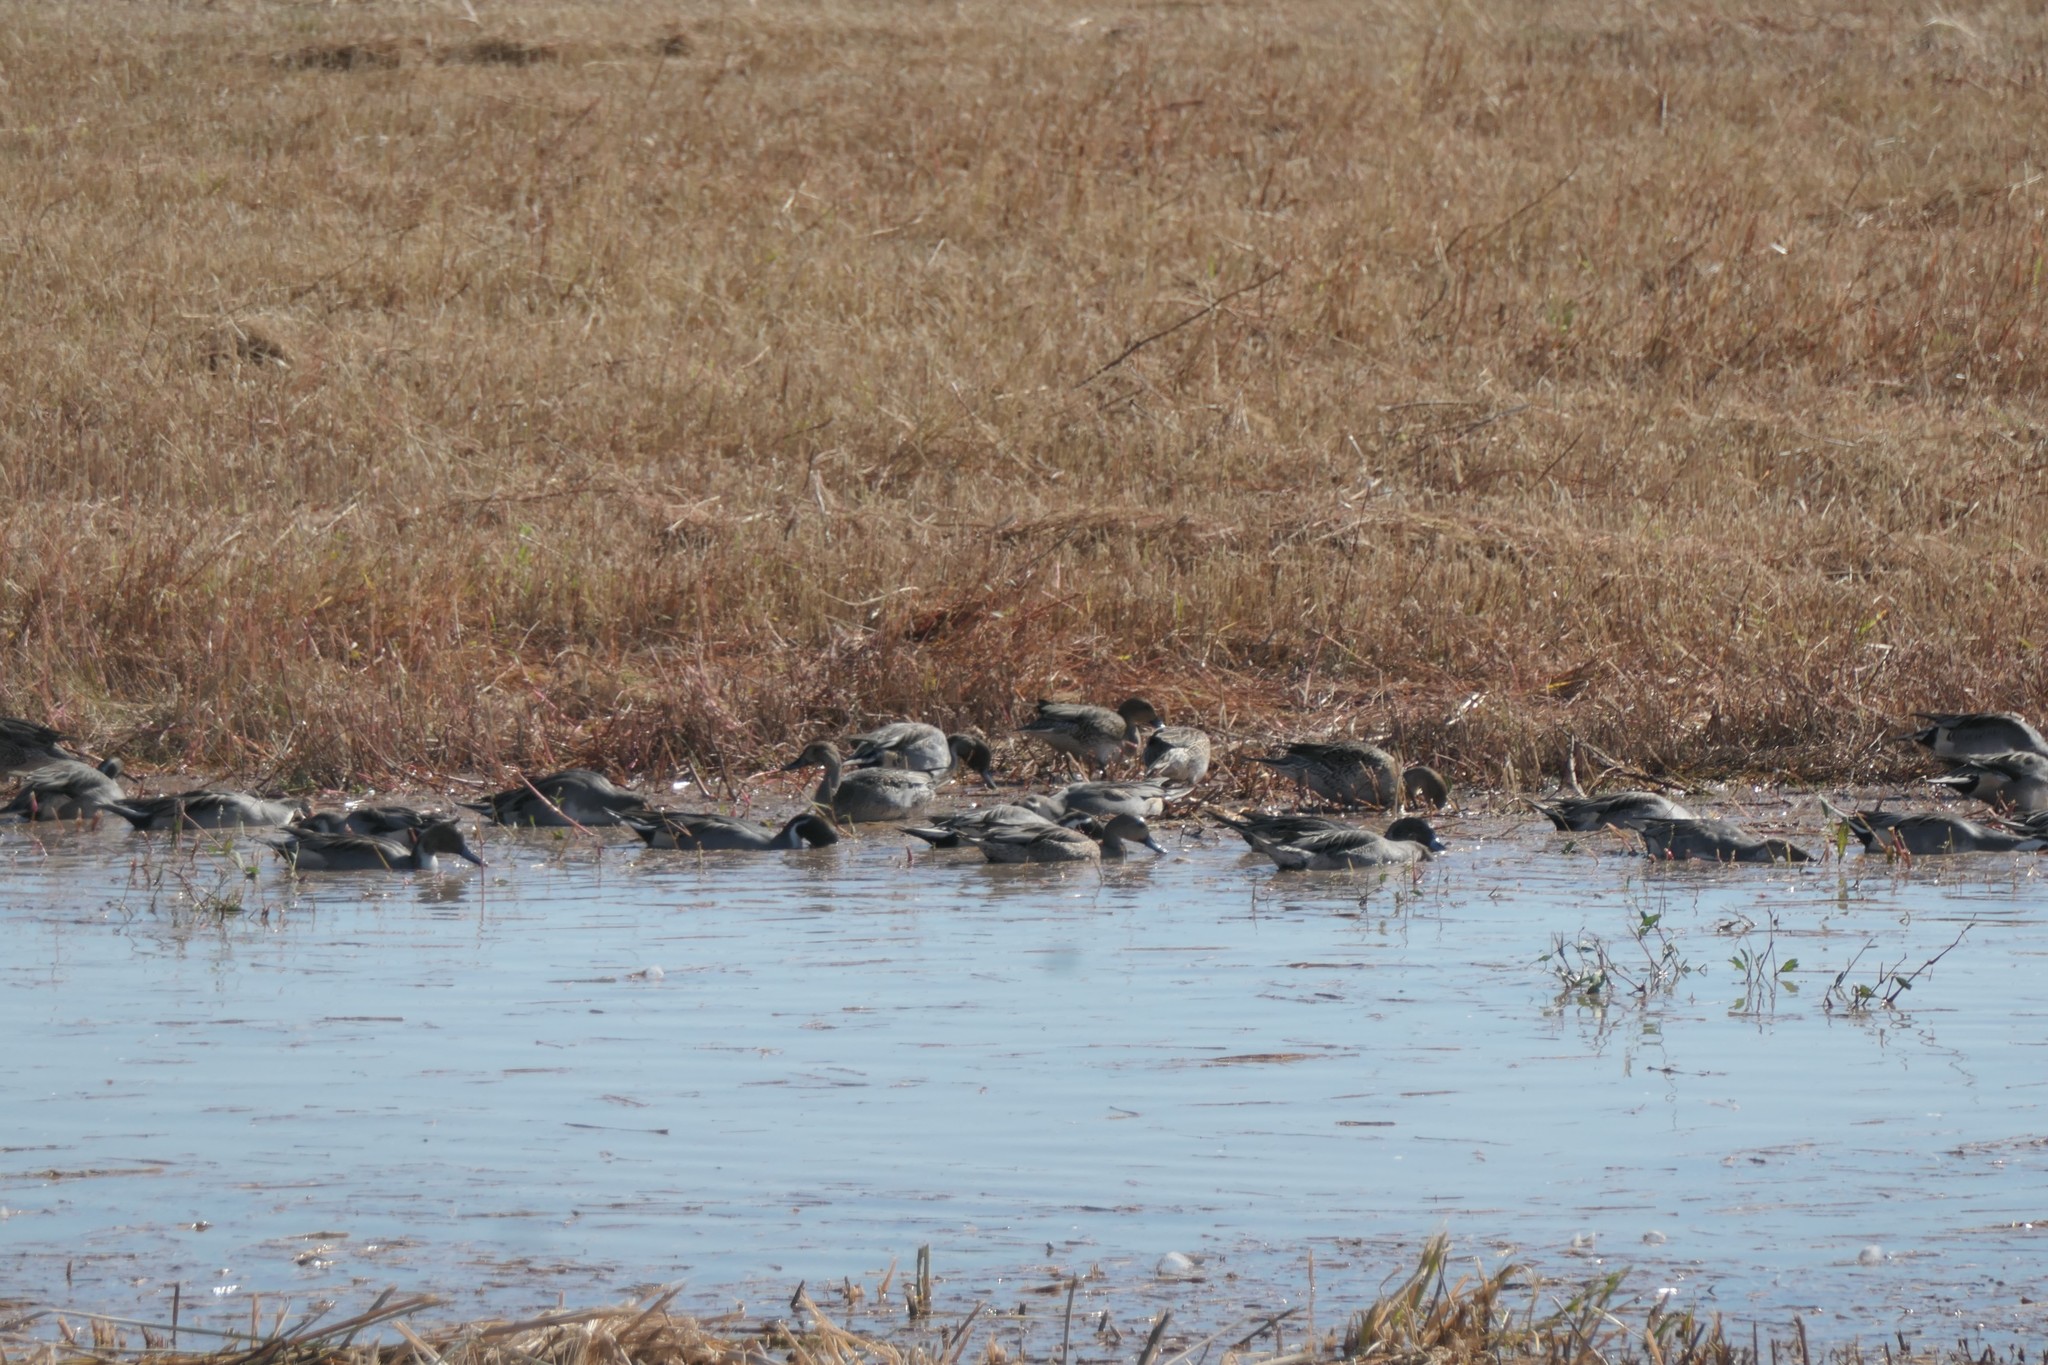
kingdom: Animalia
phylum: Chordata
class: Aves
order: Anseriformes
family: Anatidae
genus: Anas
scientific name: Anas acuta
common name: Northern pintail
